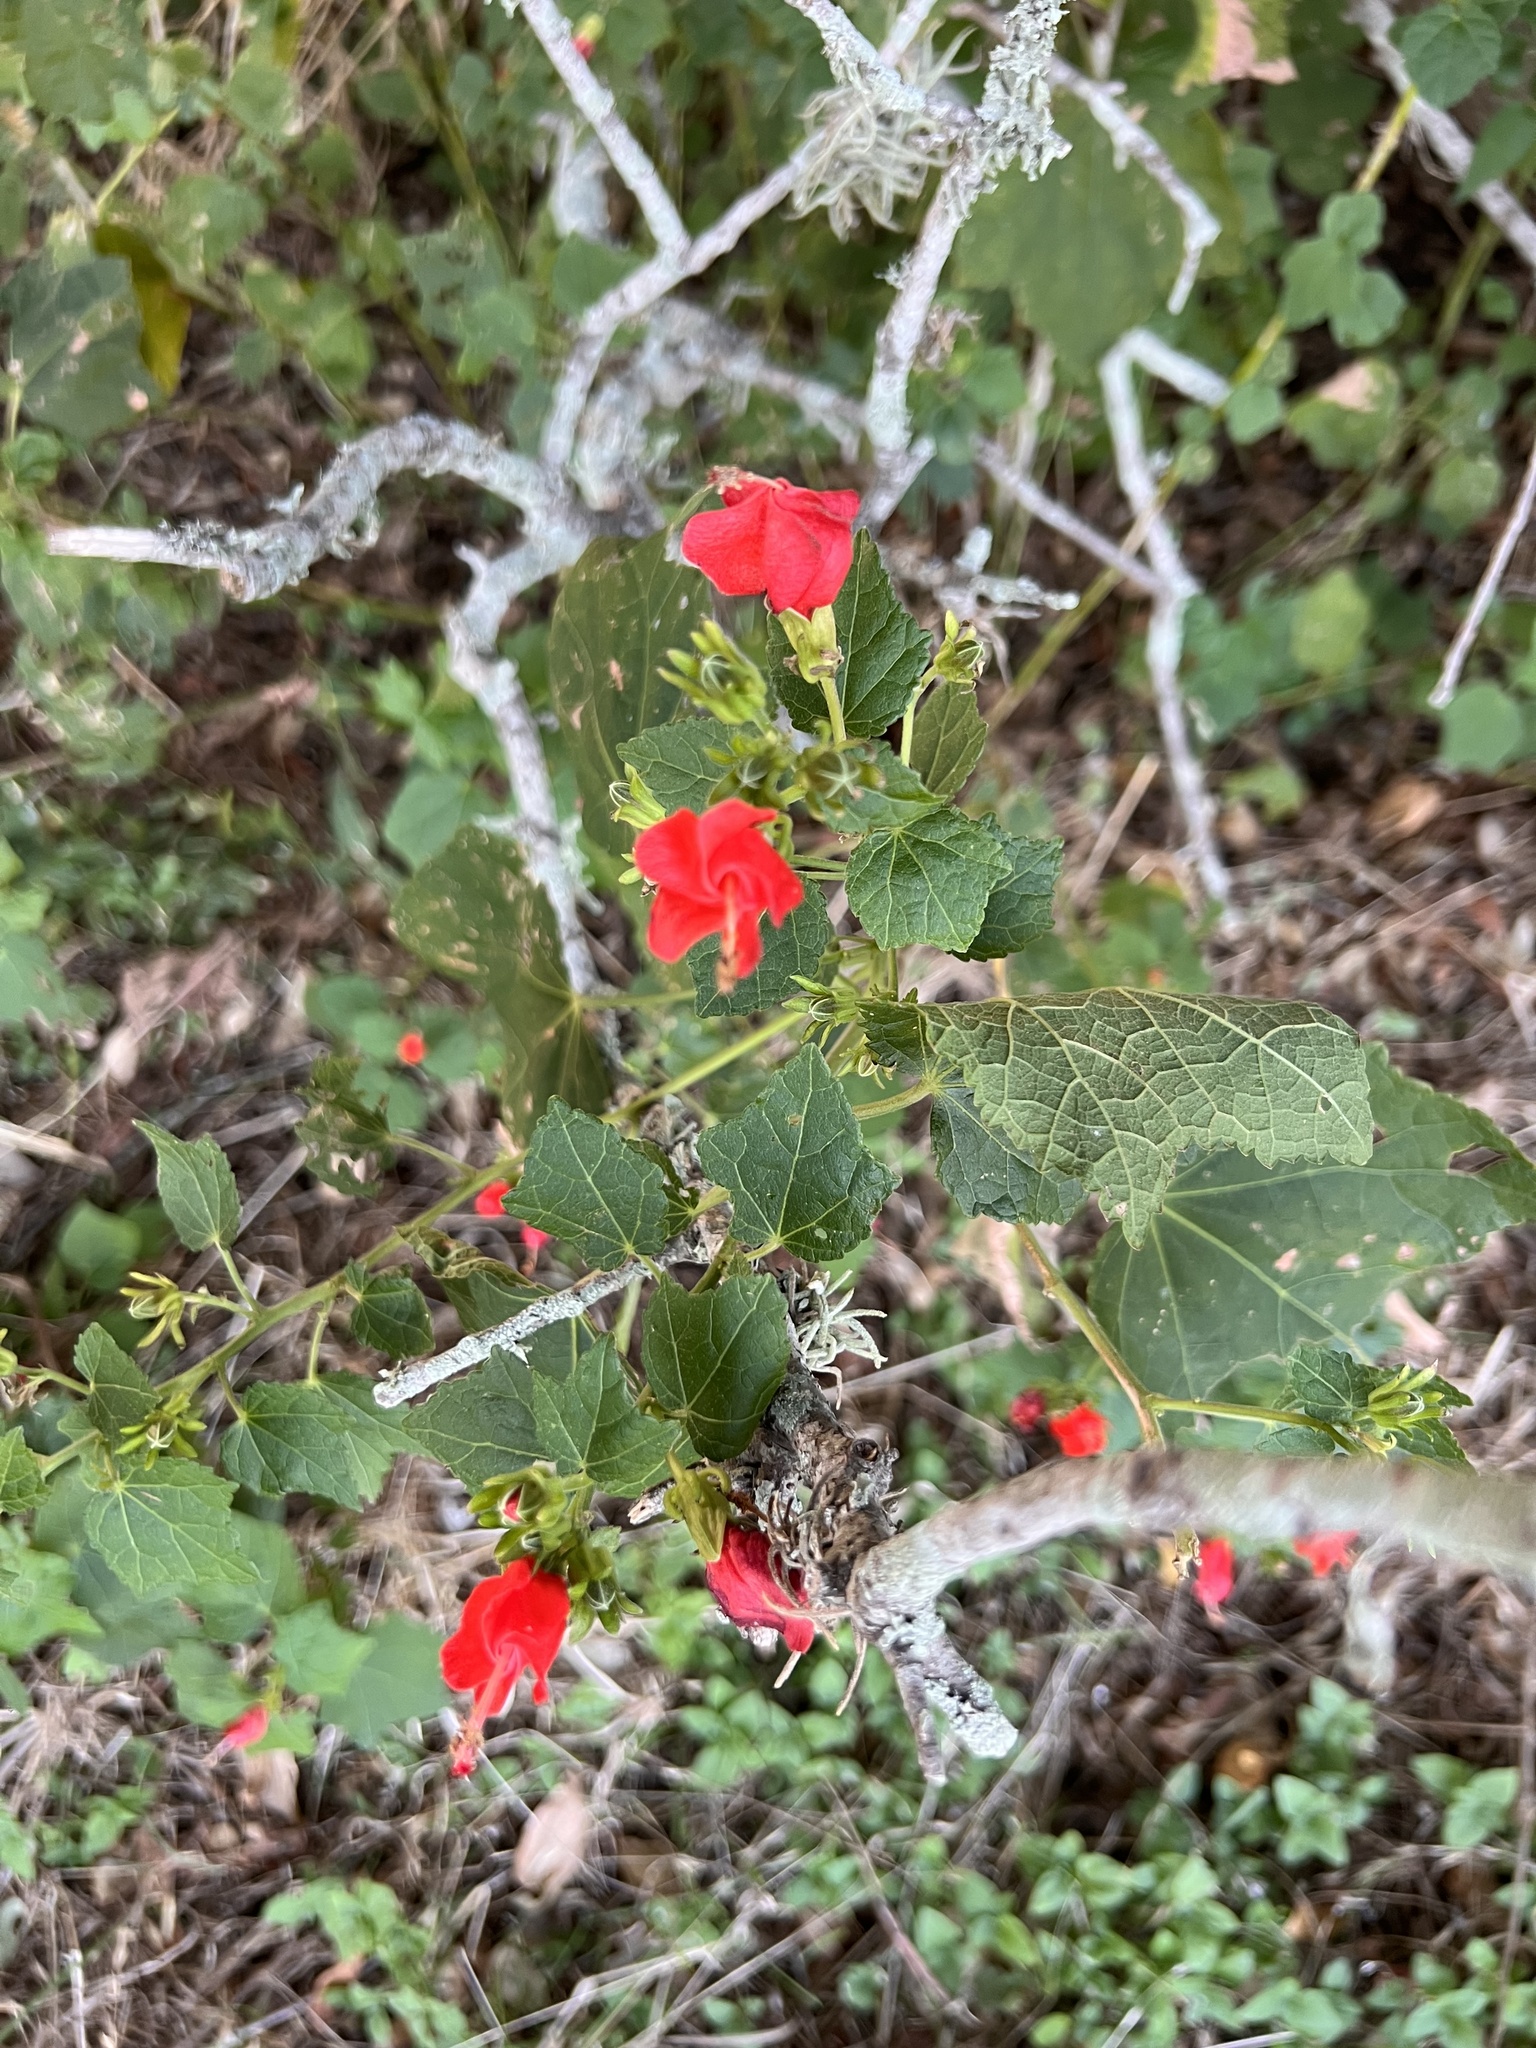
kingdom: Plantae
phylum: Tracheophyta
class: Magnoliopsida
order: Malvales
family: Malvaceae
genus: Malvaviscus
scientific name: Malvaviscus arboreus
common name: Wax mallow
